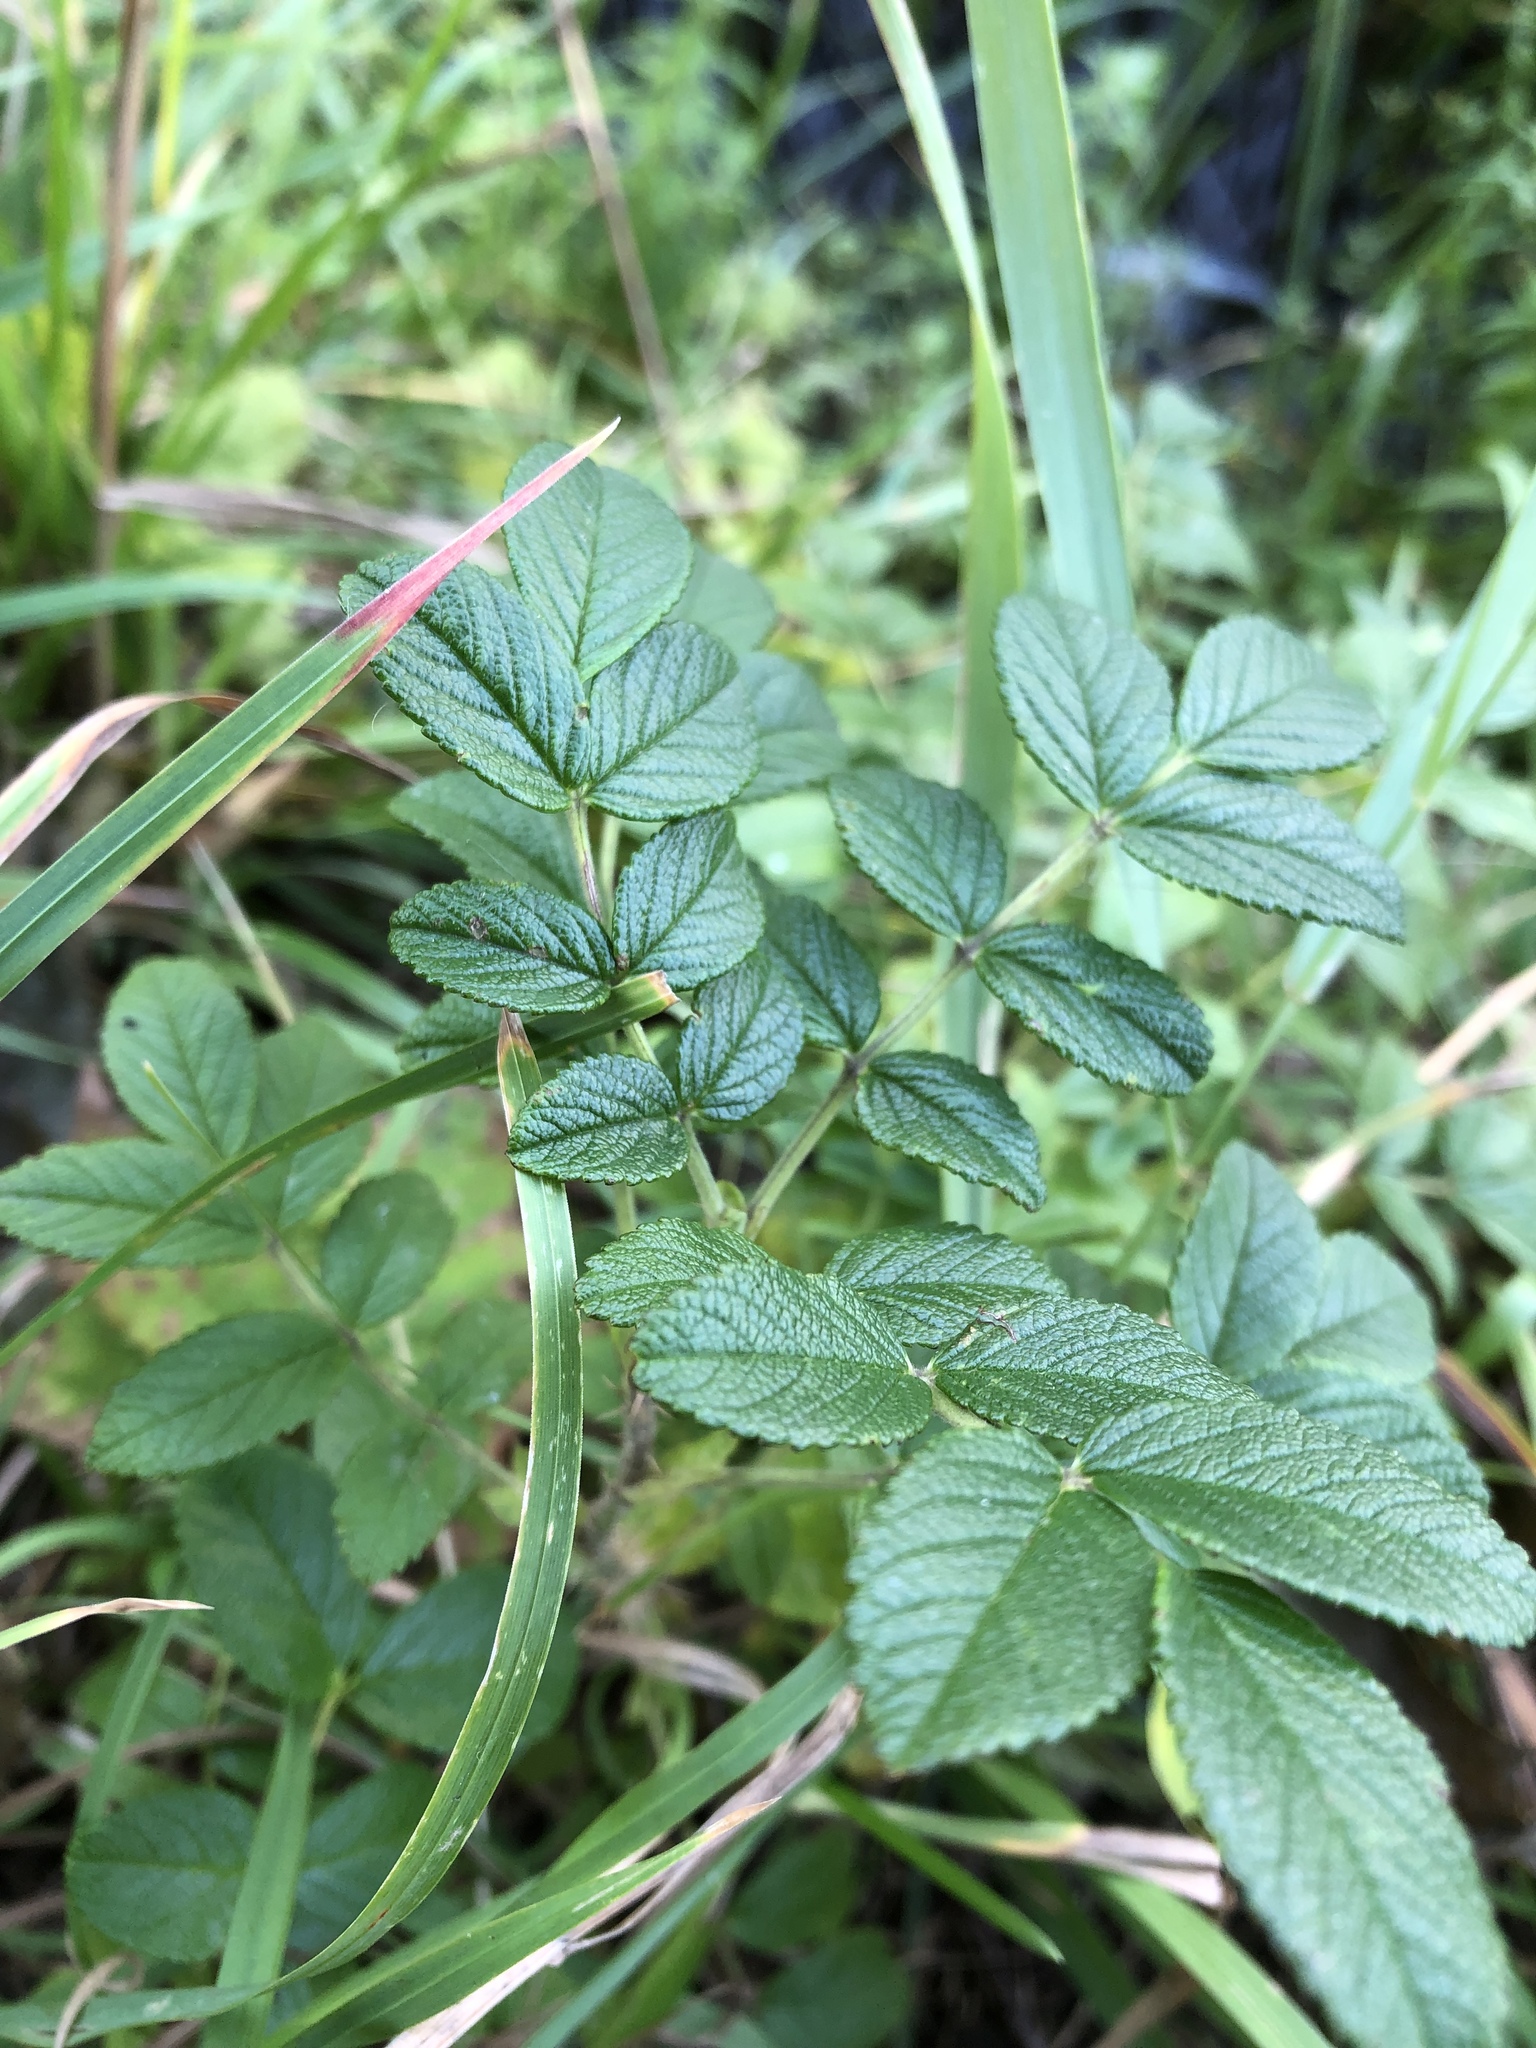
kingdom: Plantae
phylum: Tracheophyta
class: Magnoliopsida
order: Rosales
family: Rosaceae
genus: Rosa
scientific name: Rosa rugosa
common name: Japanese rose
